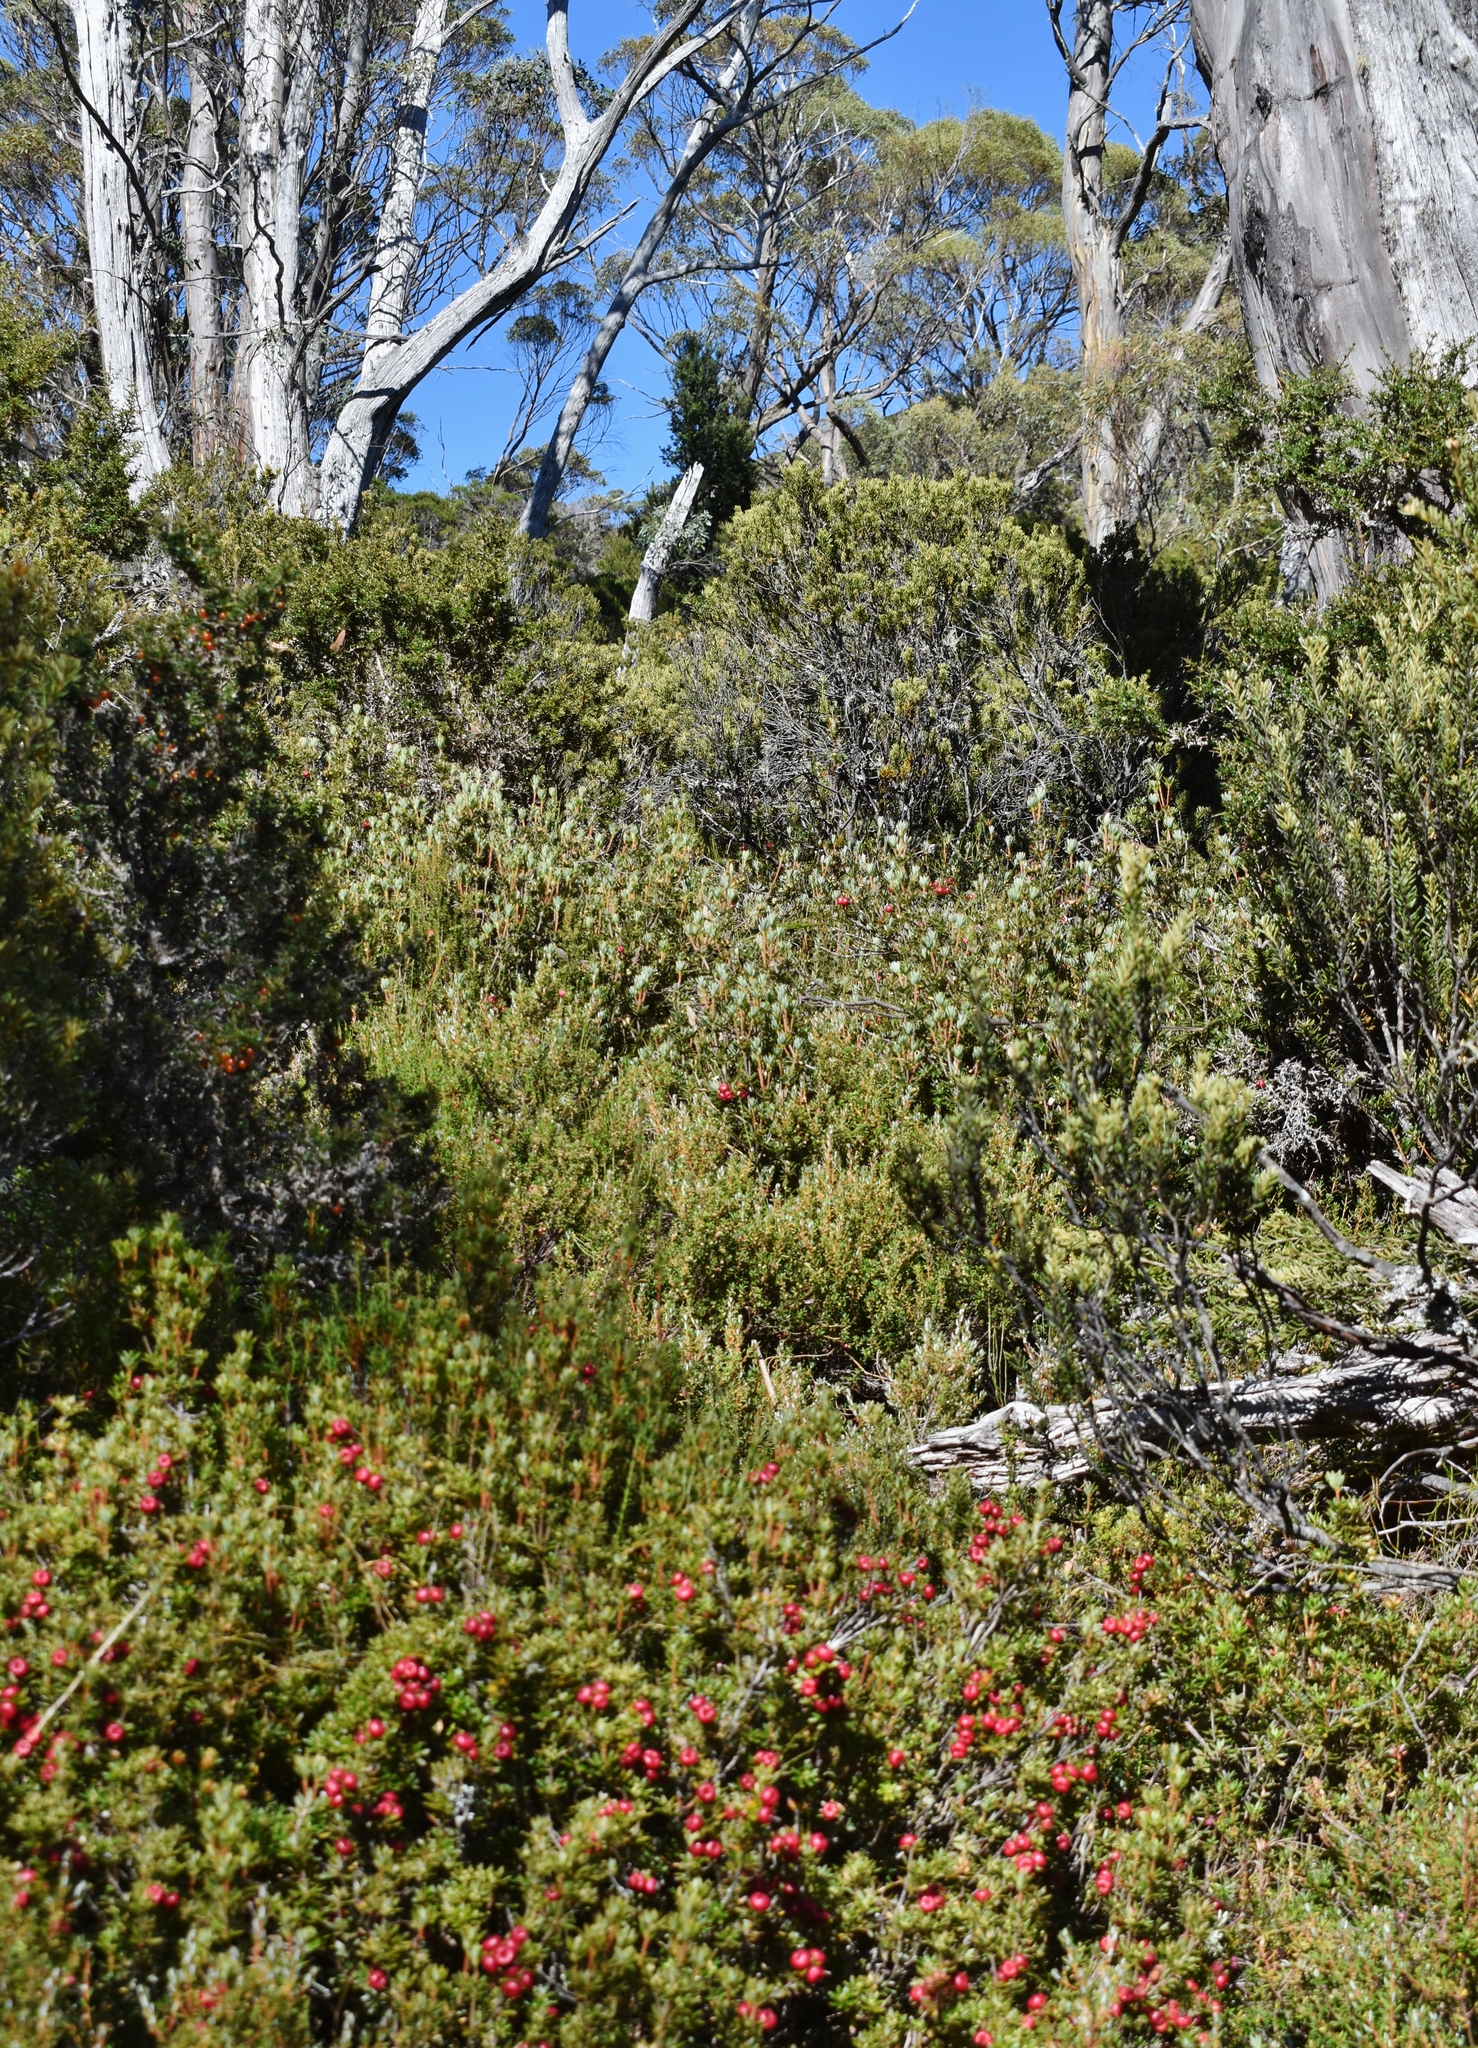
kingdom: Plantae
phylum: Tracheophyta
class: Magnoliopsida
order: Ericales
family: Ericaceae
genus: Cyathodes
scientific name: Cyathodes straminea
